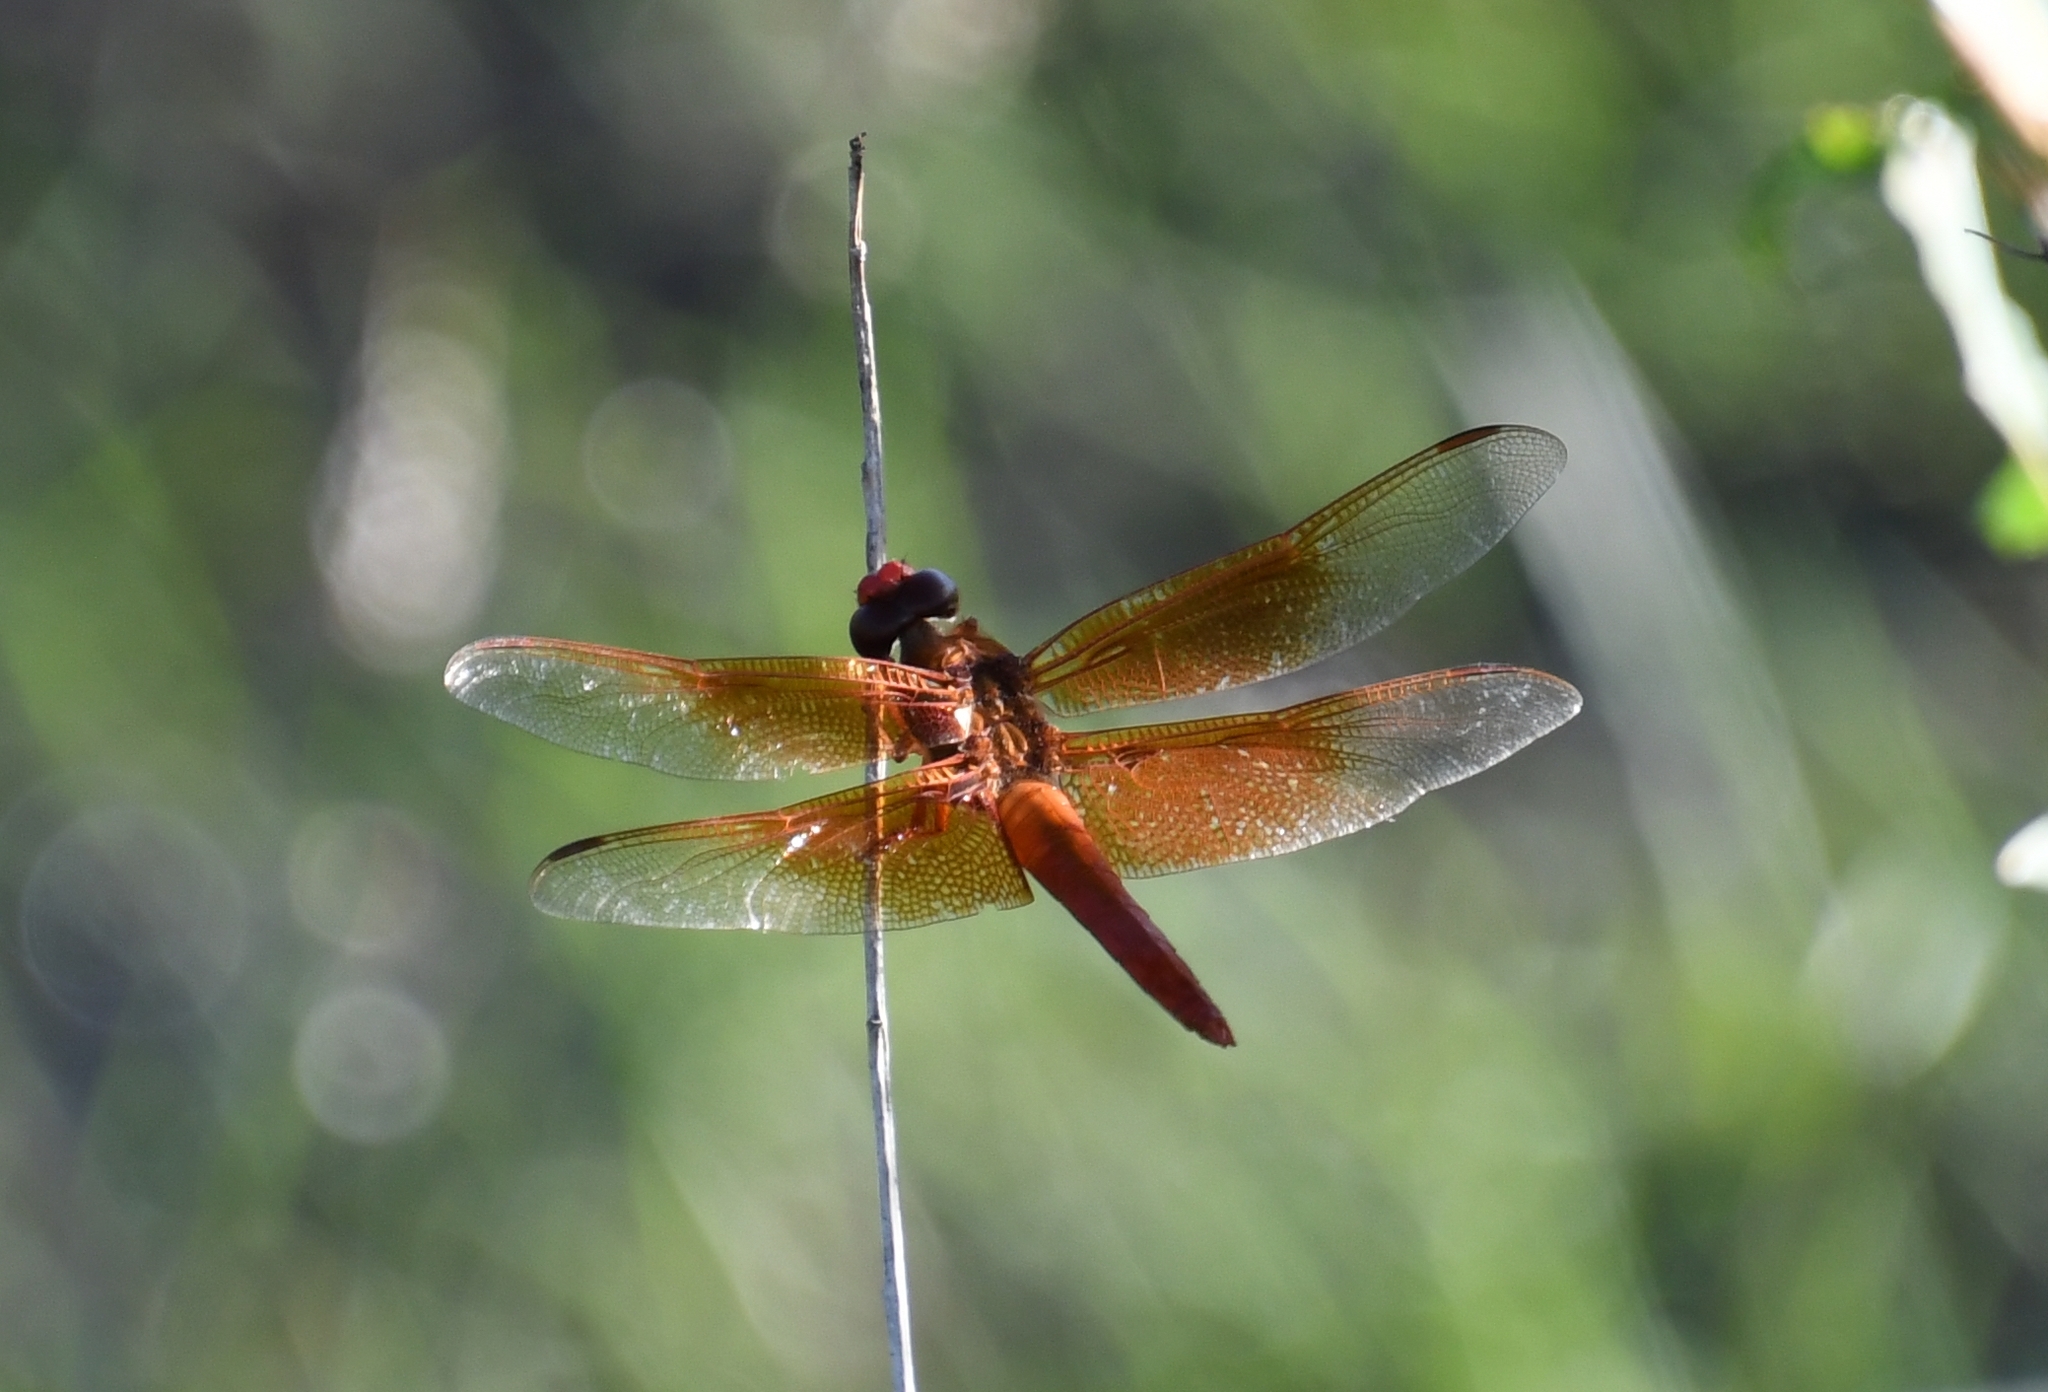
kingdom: Animalia
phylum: Arthropoda
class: Insecta
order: Odonata
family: Libellulidae
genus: Libellula
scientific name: Libellula saturata
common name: Flame skimmer
